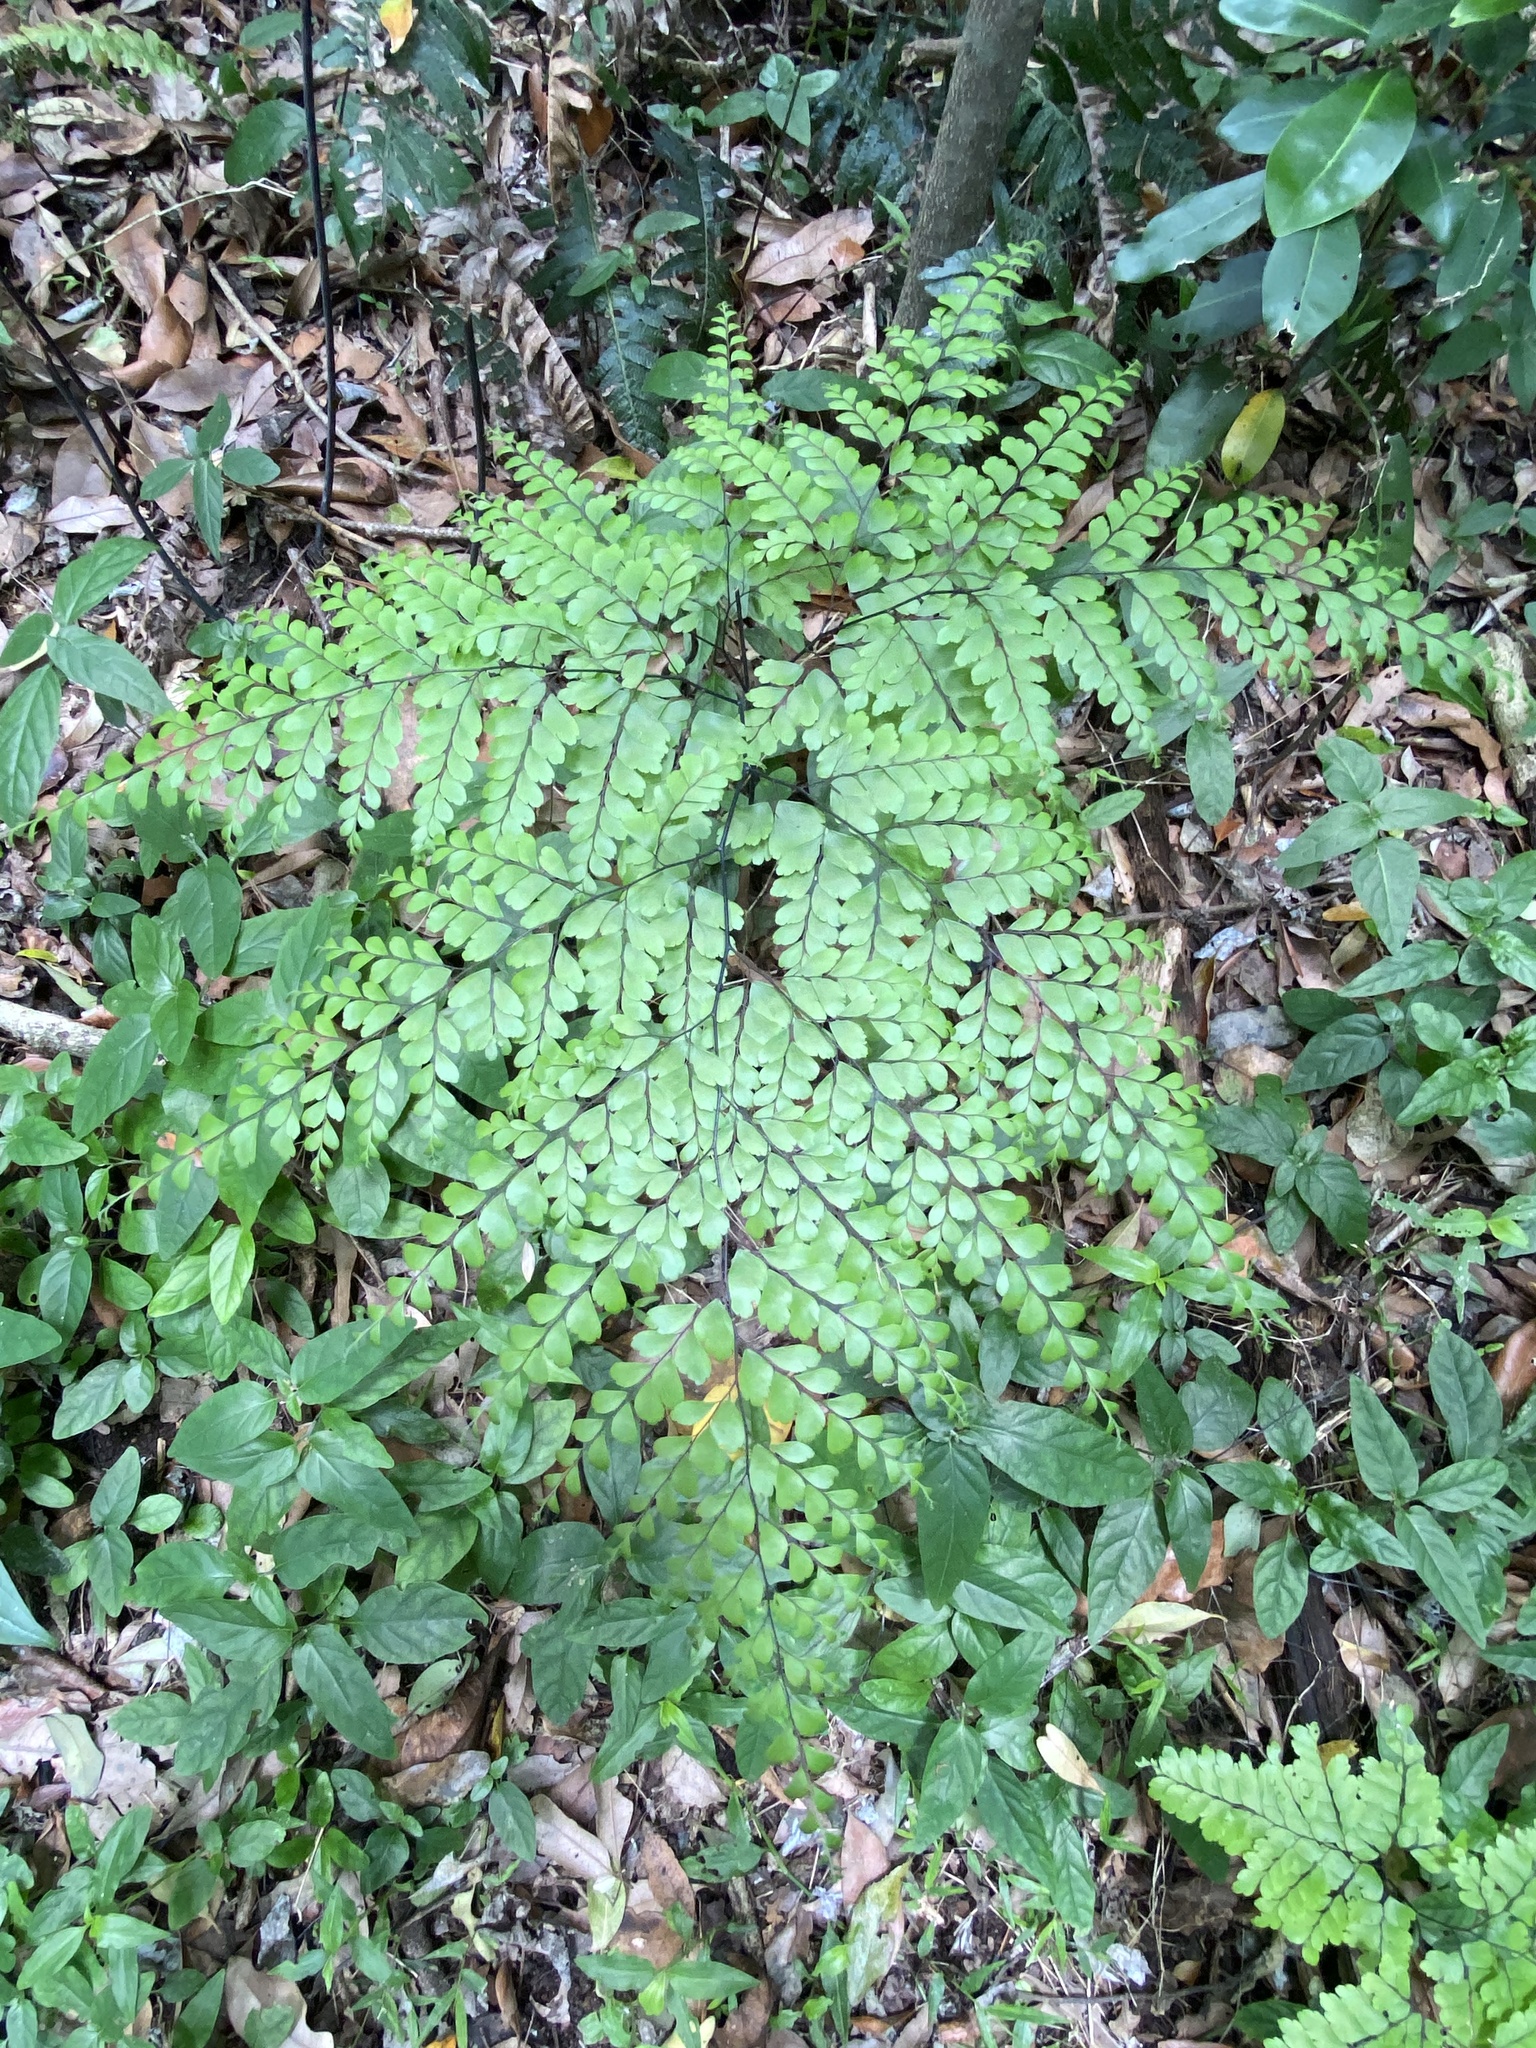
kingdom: Plantae
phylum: Tracheophyta
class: Polypodiopsida
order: Polypodiales
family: Pteridaceae
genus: Adiantum
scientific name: Adiantum formosum
